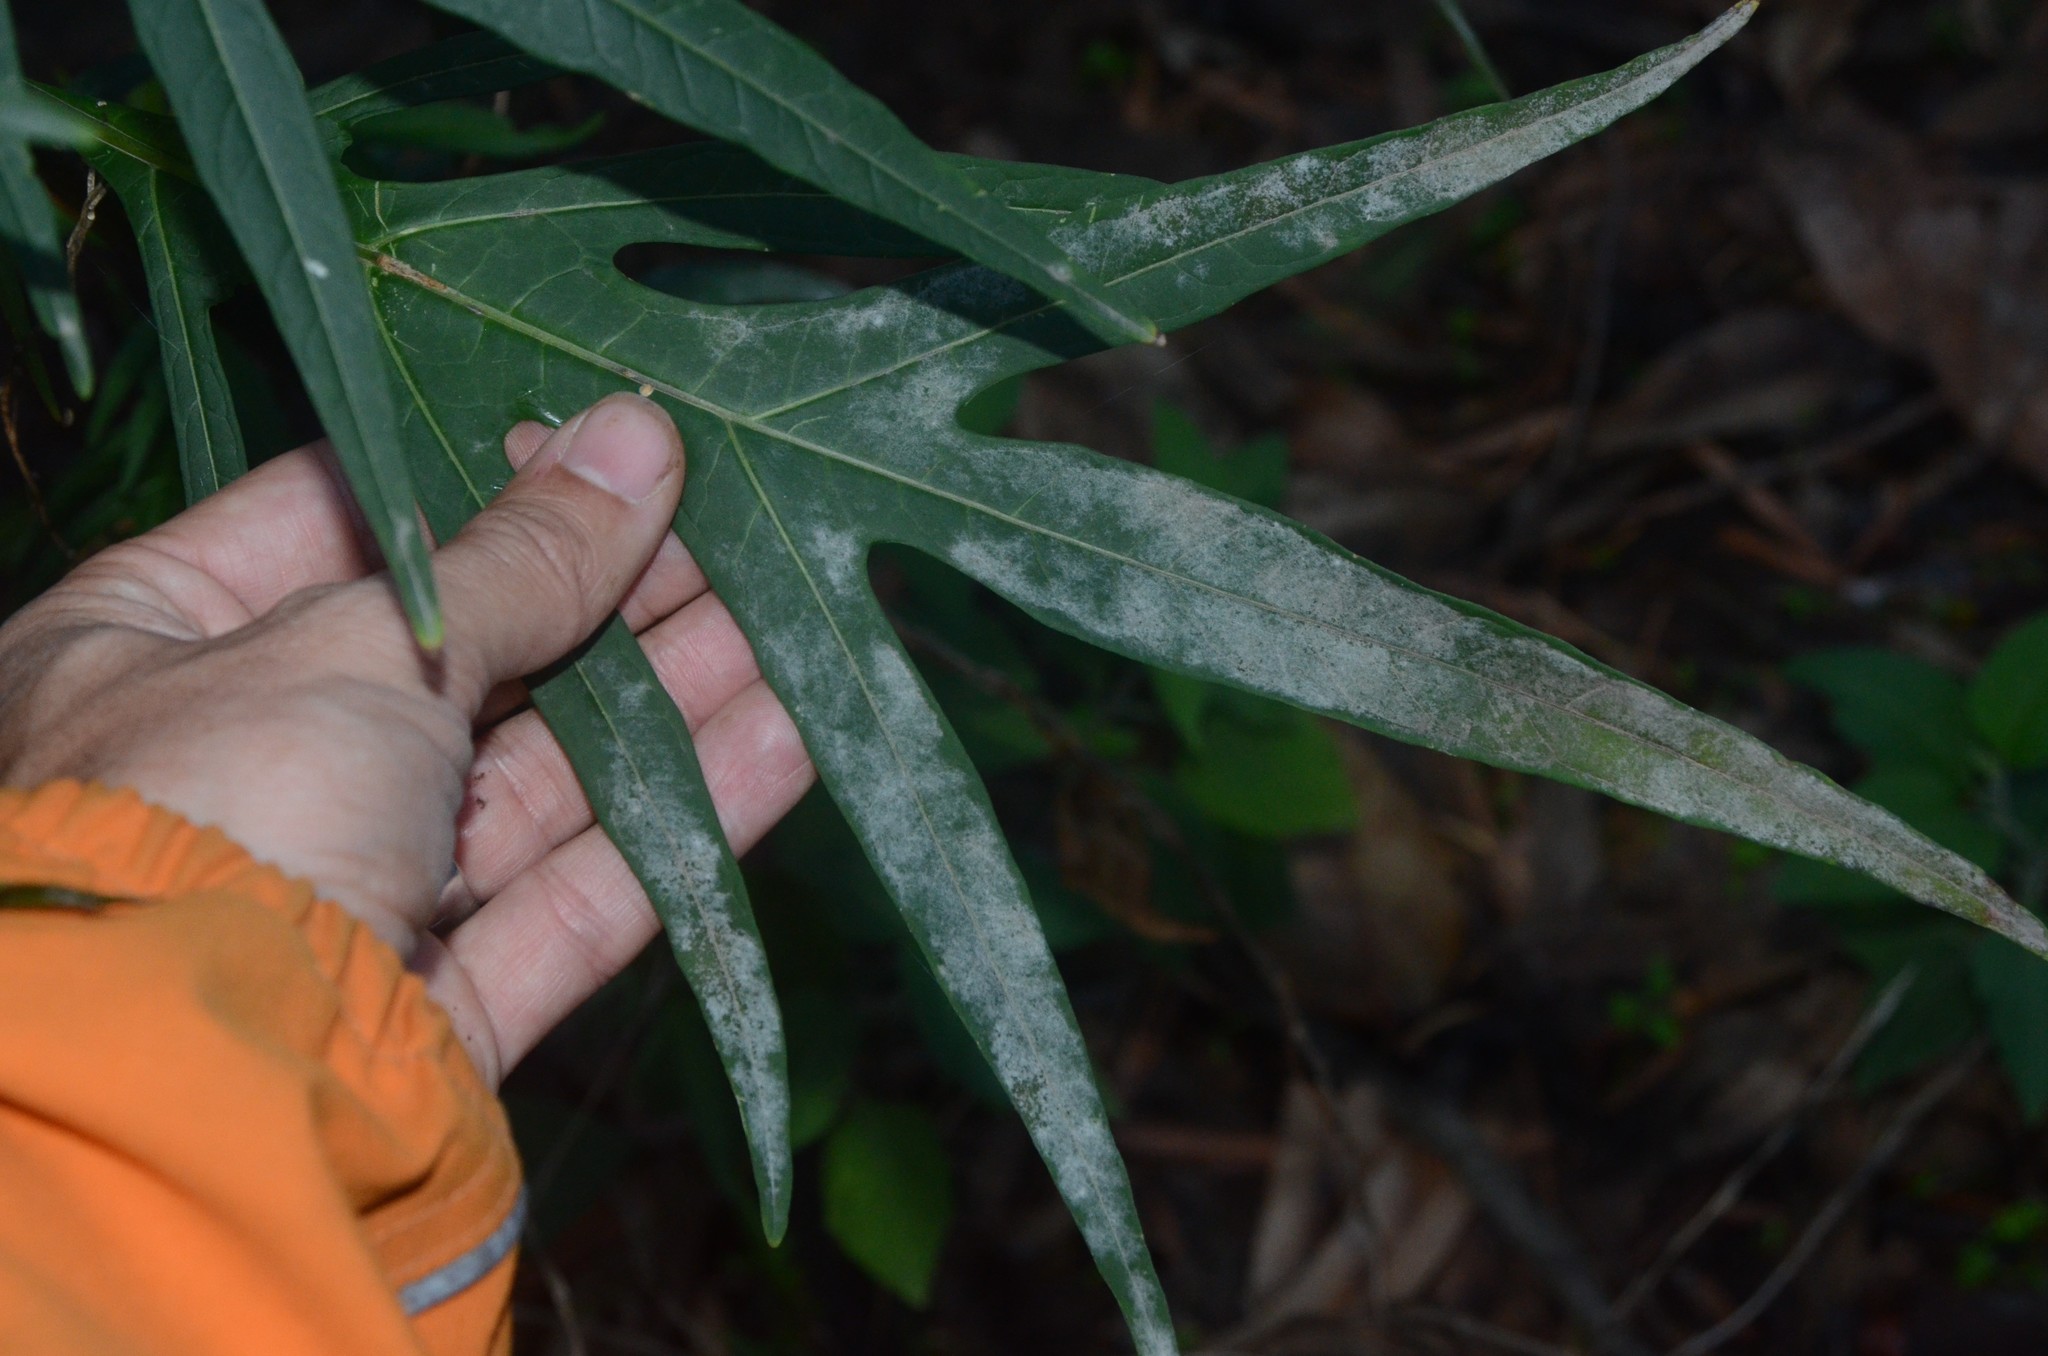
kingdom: Fungi
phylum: Ascomycota
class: Leotiomycetes
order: Helotiales
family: Erysiphaceae
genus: Golovinomyces
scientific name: Golovinomyces longipes
